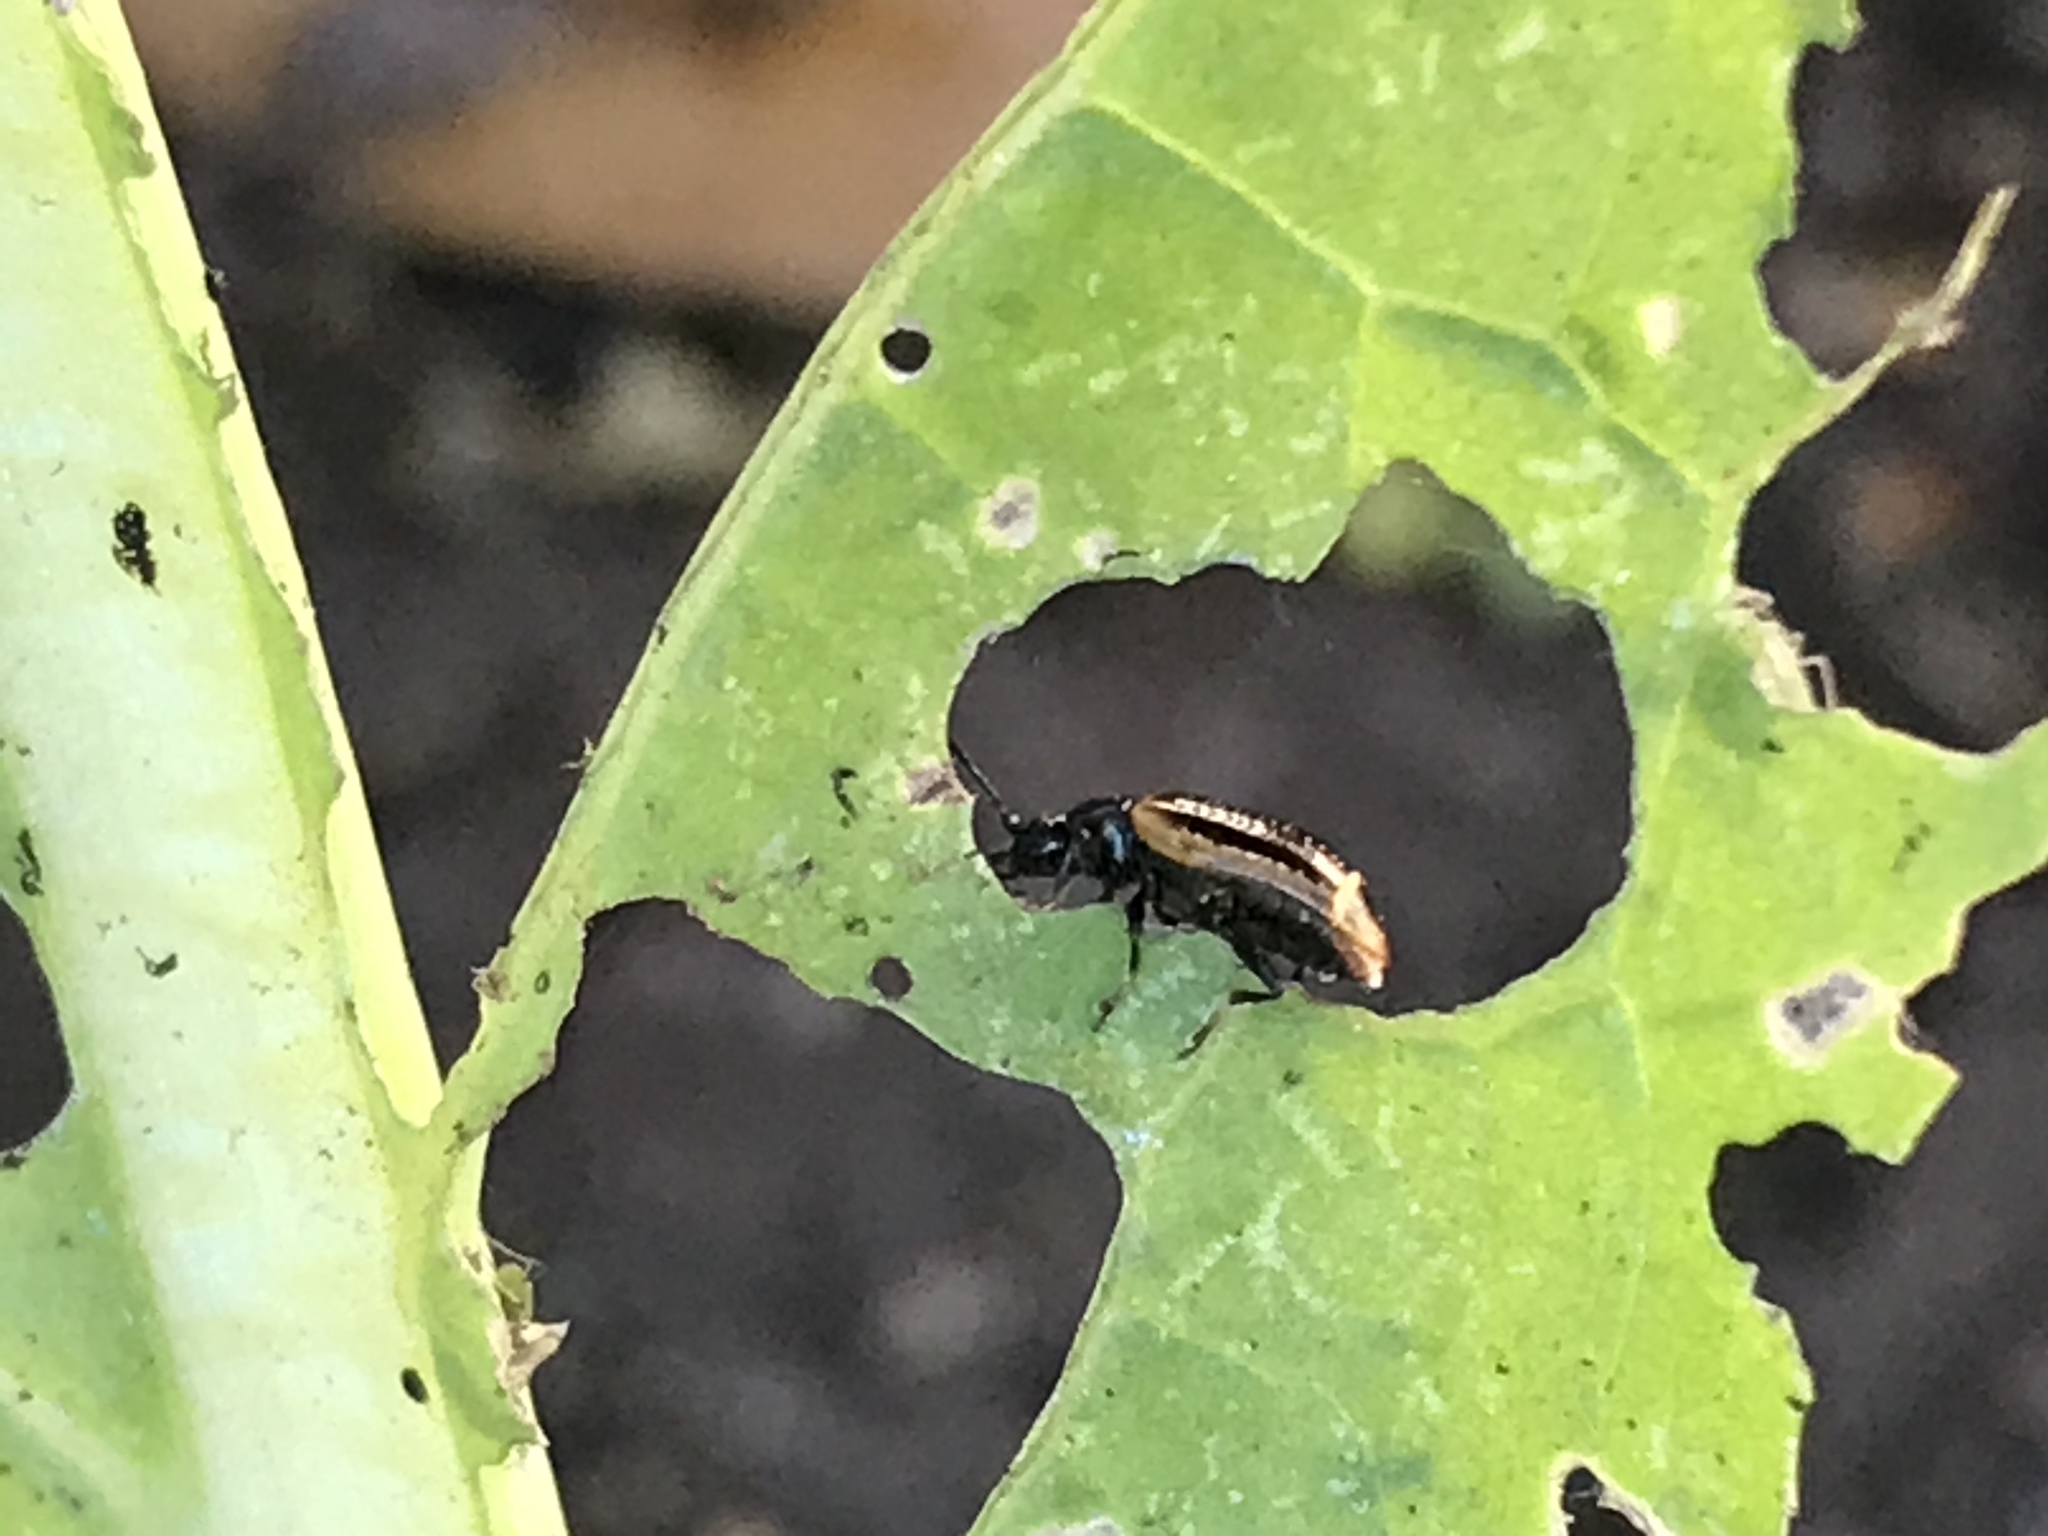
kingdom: Animalia
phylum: Arthropoda
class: Insecta
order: Coleoptera
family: Chrysomelidae
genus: Microtheca
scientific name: Microtheca ochroloma
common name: Leaf beetle
